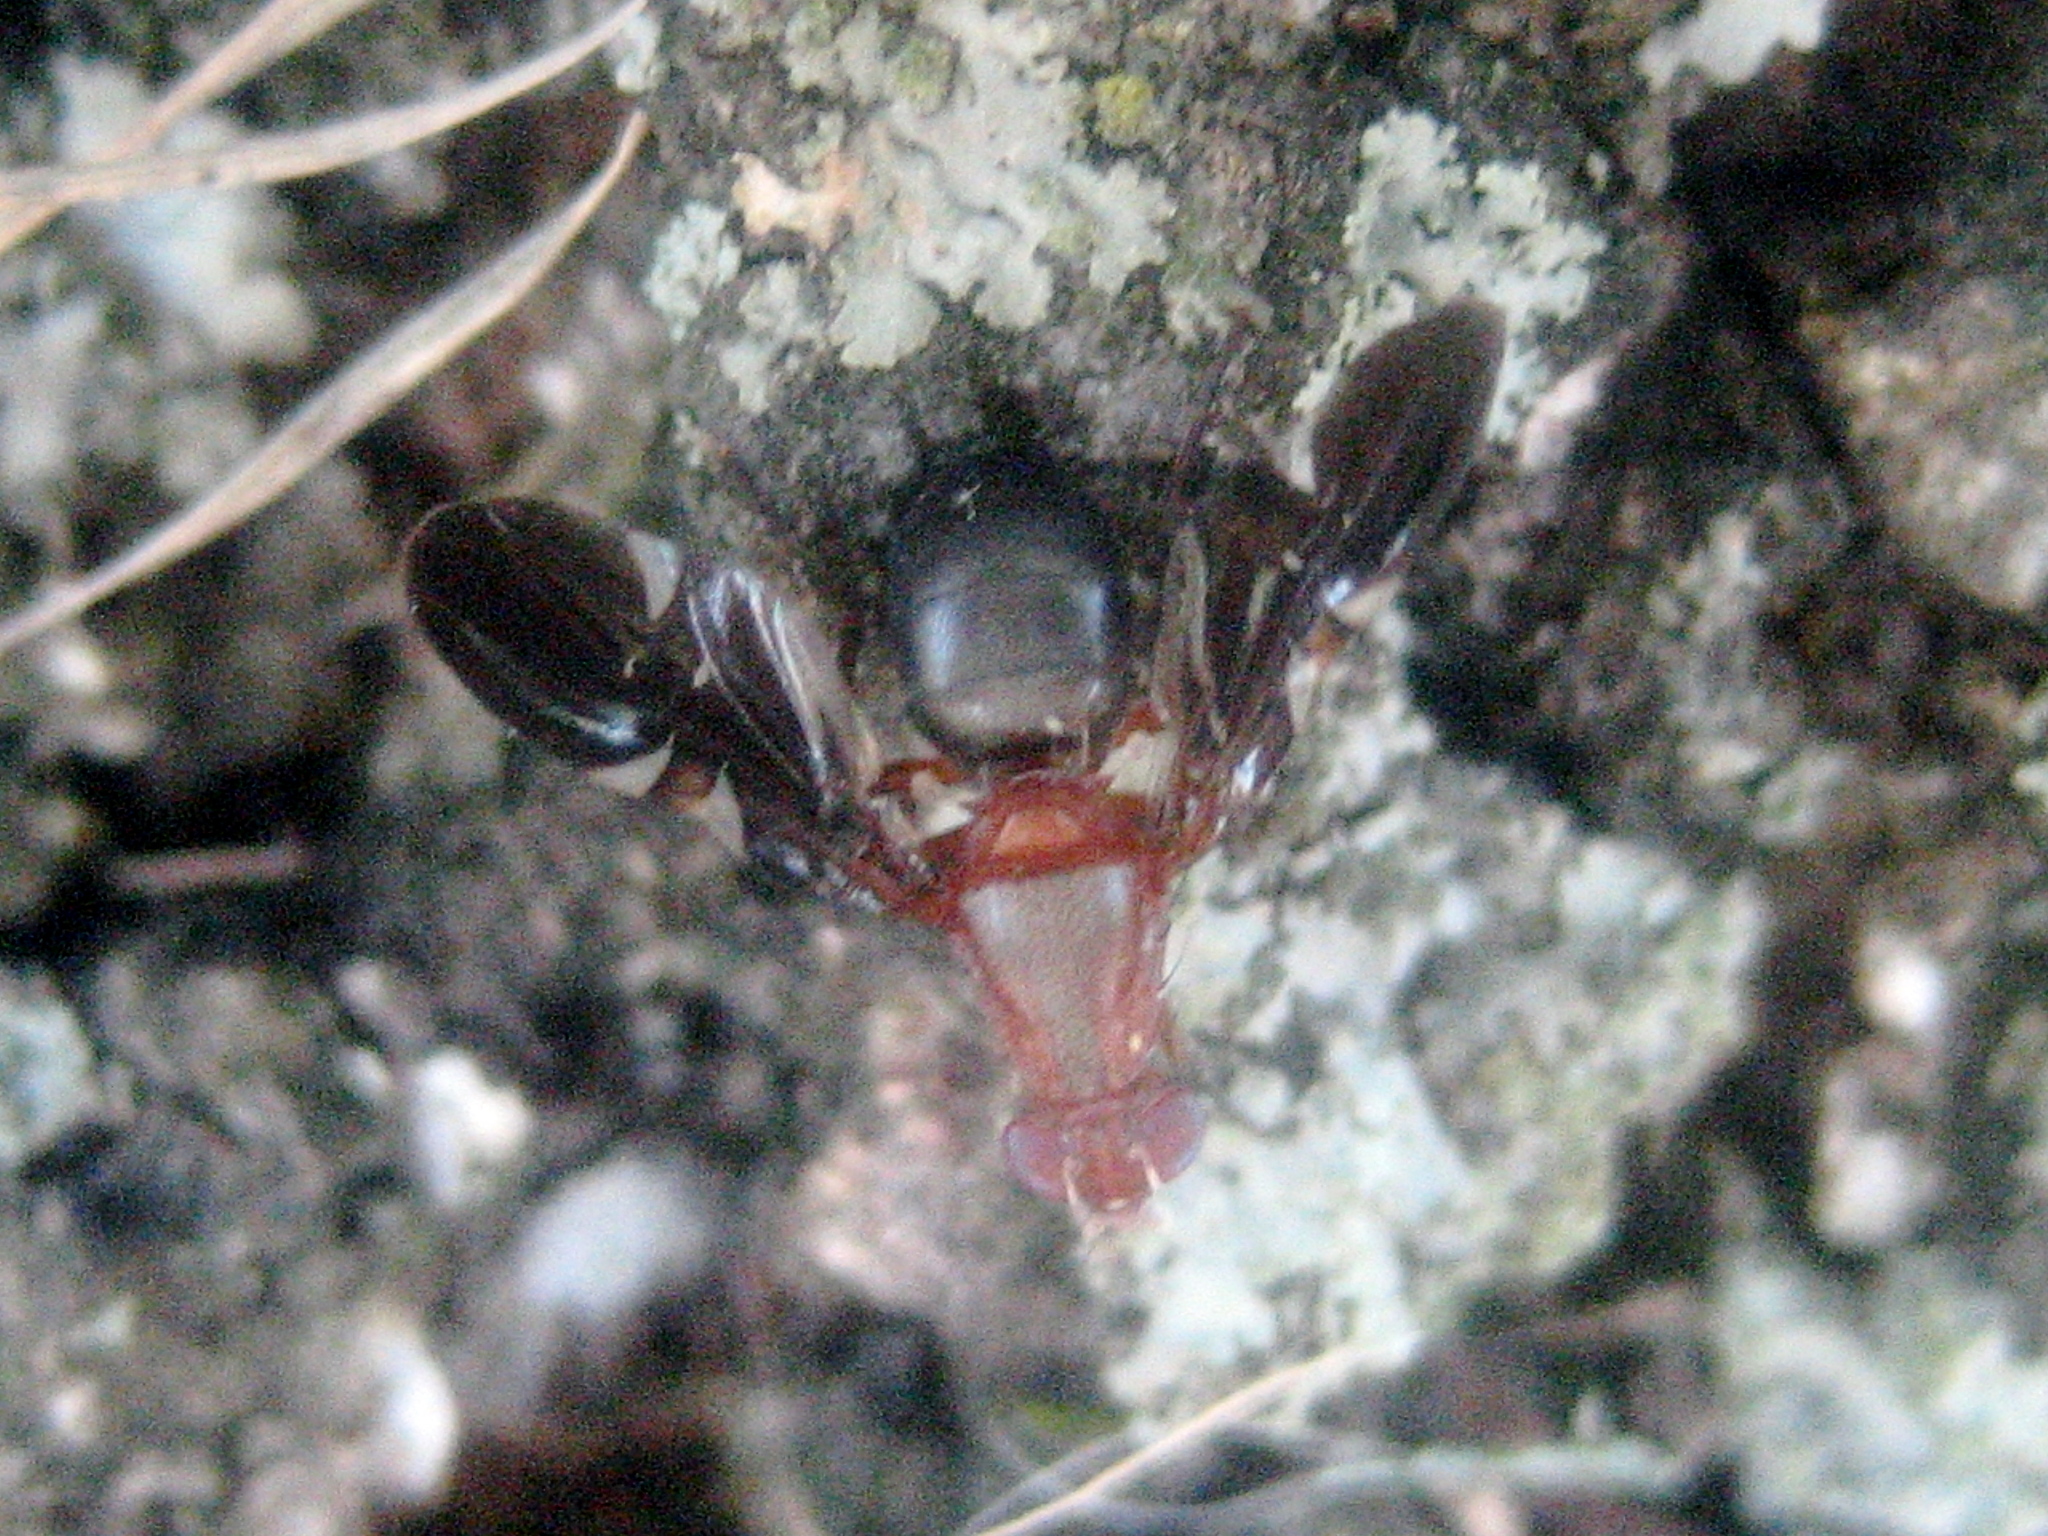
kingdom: Animalia
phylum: Arthropoda
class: Insecta
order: Diptera
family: Ulidiidae
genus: Delphinia
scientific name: Delphinia picta
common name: Common picture-winged fly
